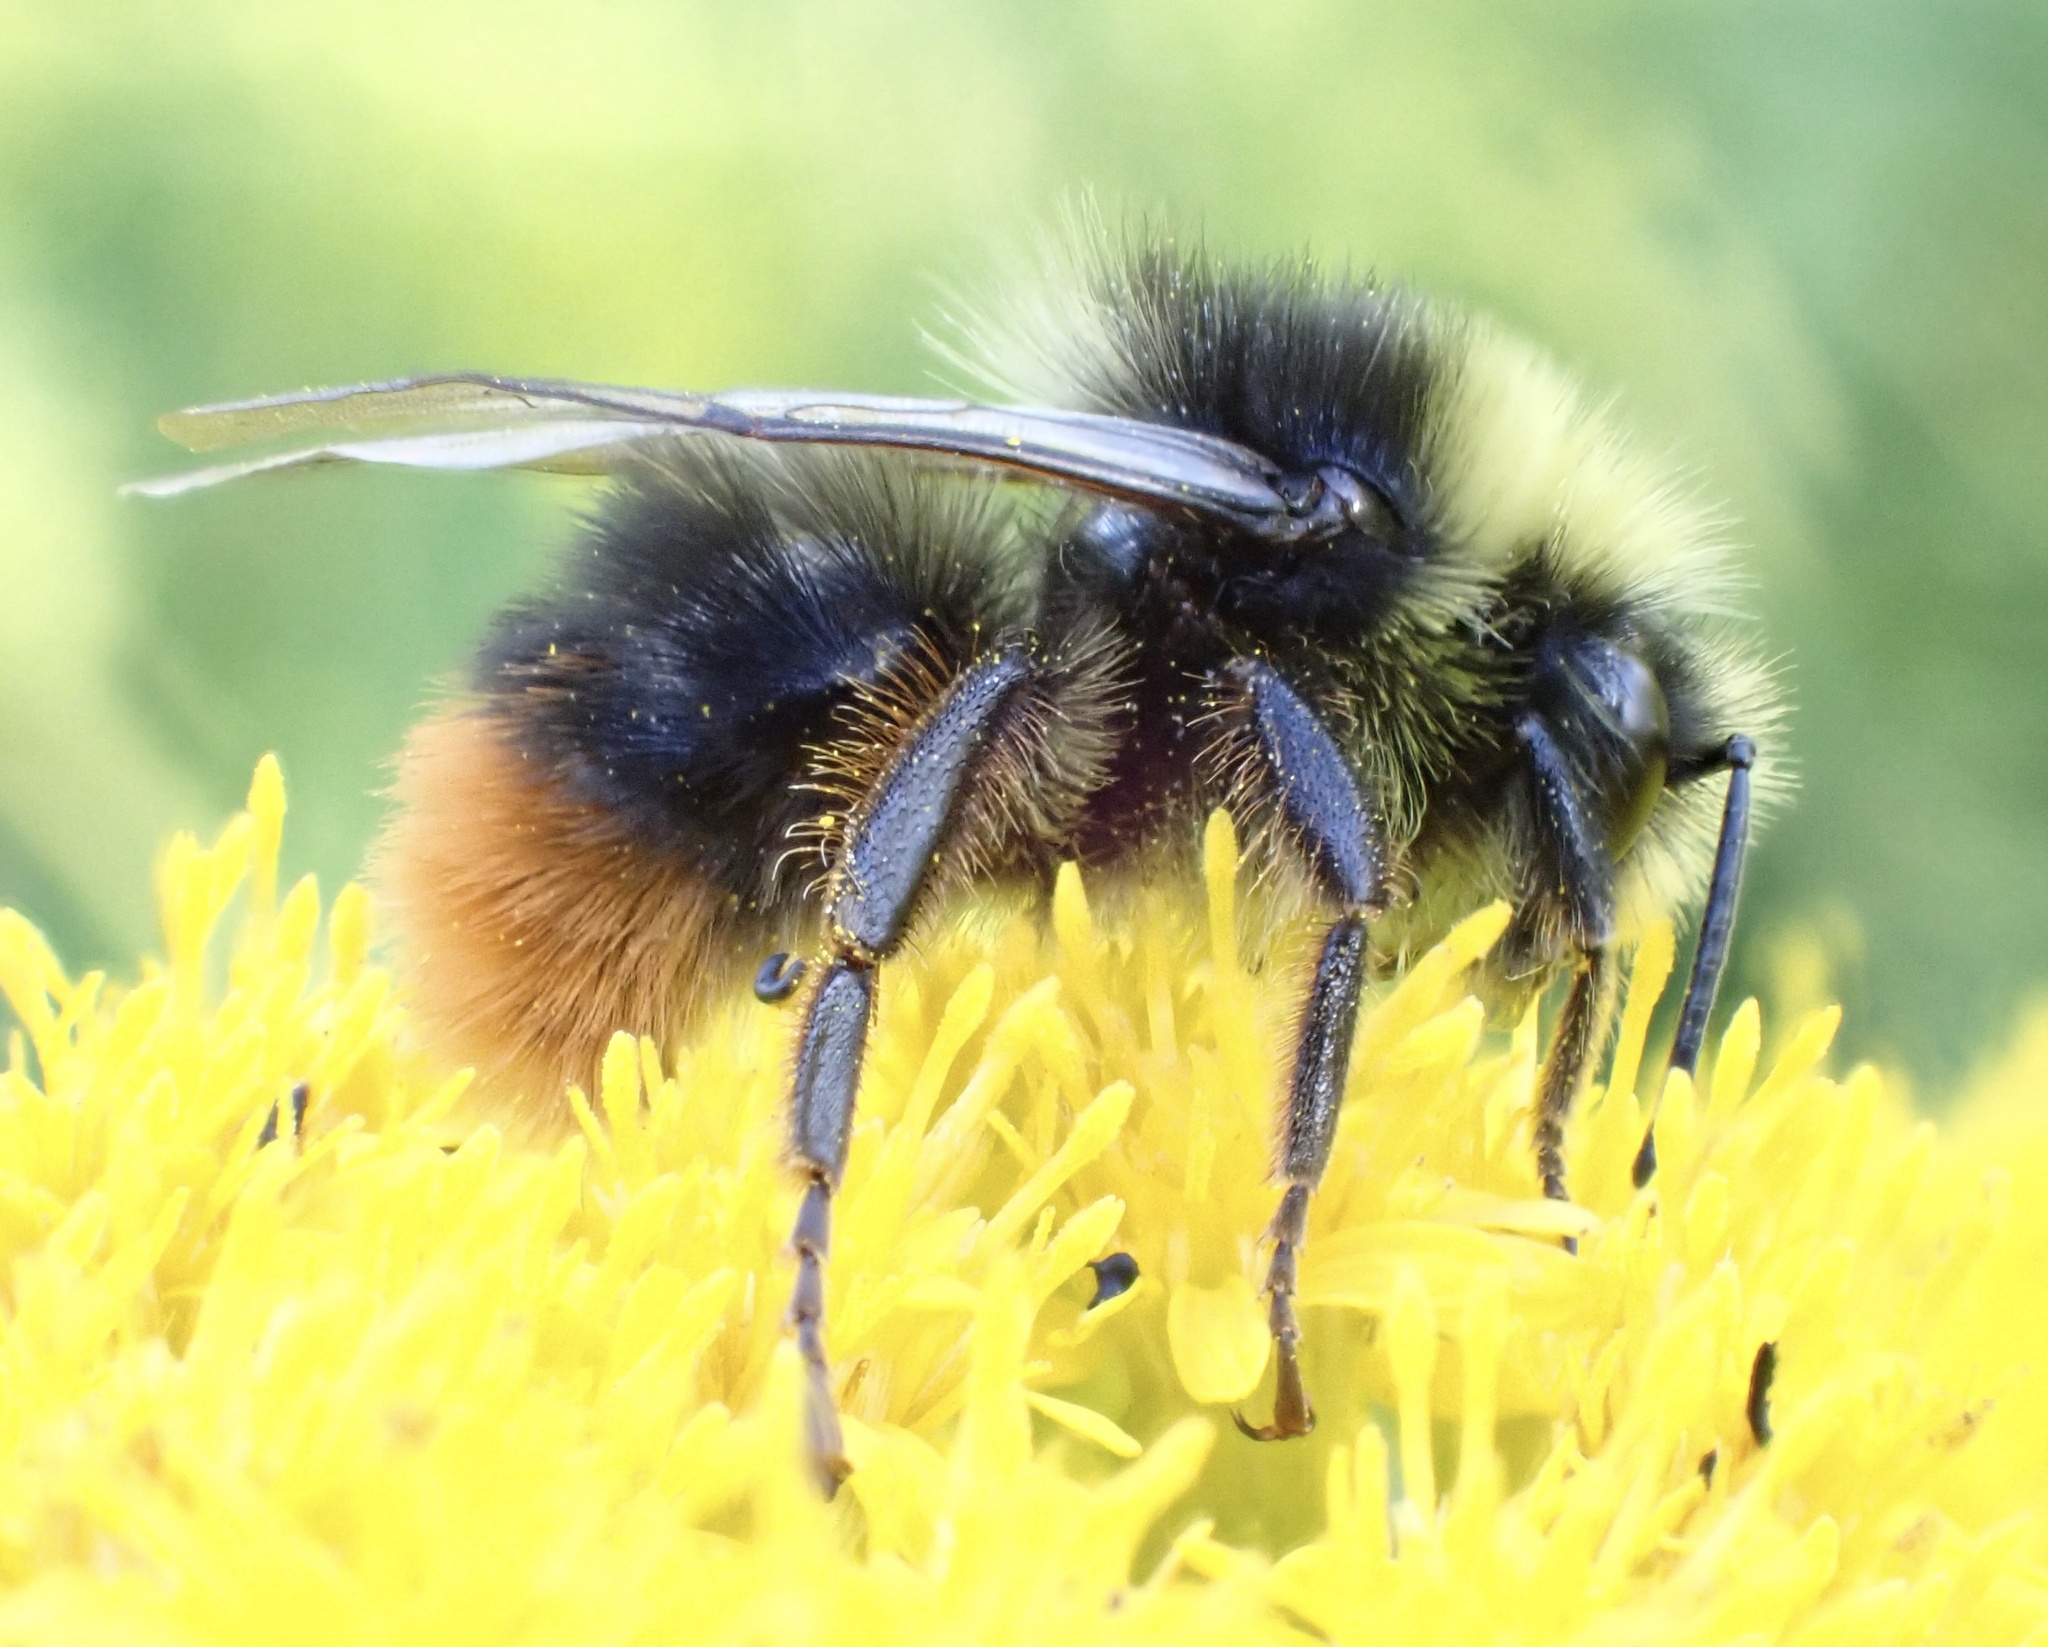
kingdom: Animalia
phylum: Arthropoda
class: Insecta
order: Hymenoptera
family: Apidae
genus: Bombus
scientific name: Bombus lapidarius
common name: Large red-tailed humble-bee
